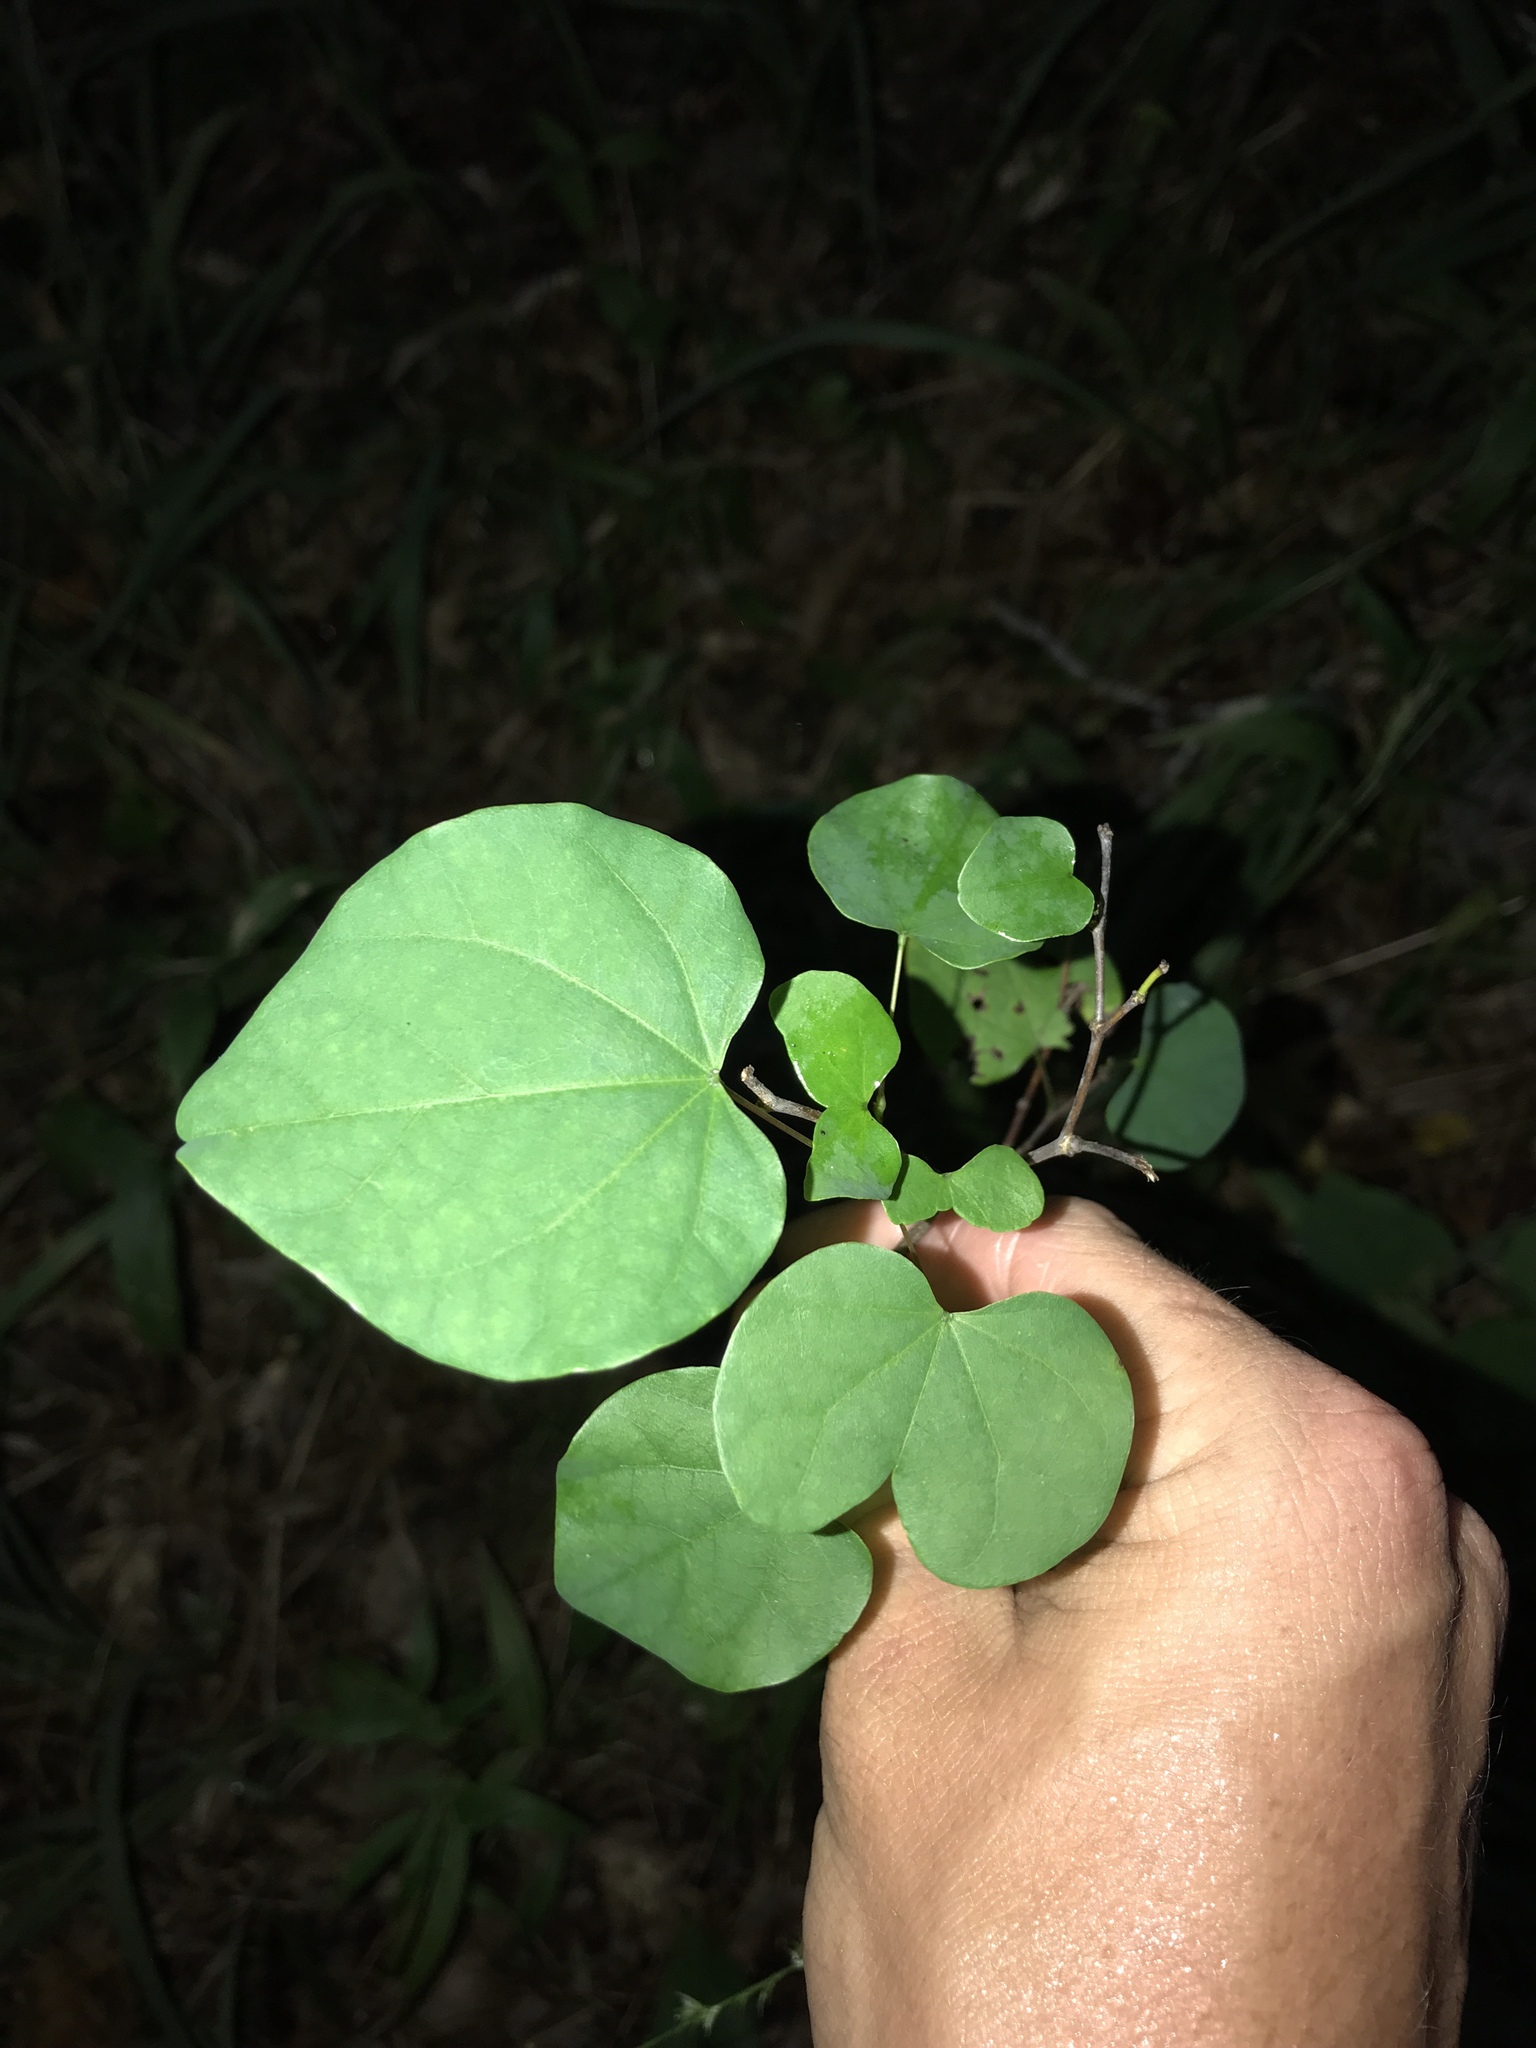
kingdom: Plantae
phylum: Tracheophyta
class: Magnoliopsida
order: Fabales
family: Fabaceae
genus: Cercis
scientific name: Cercis canadensis
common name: Eastern redbud
